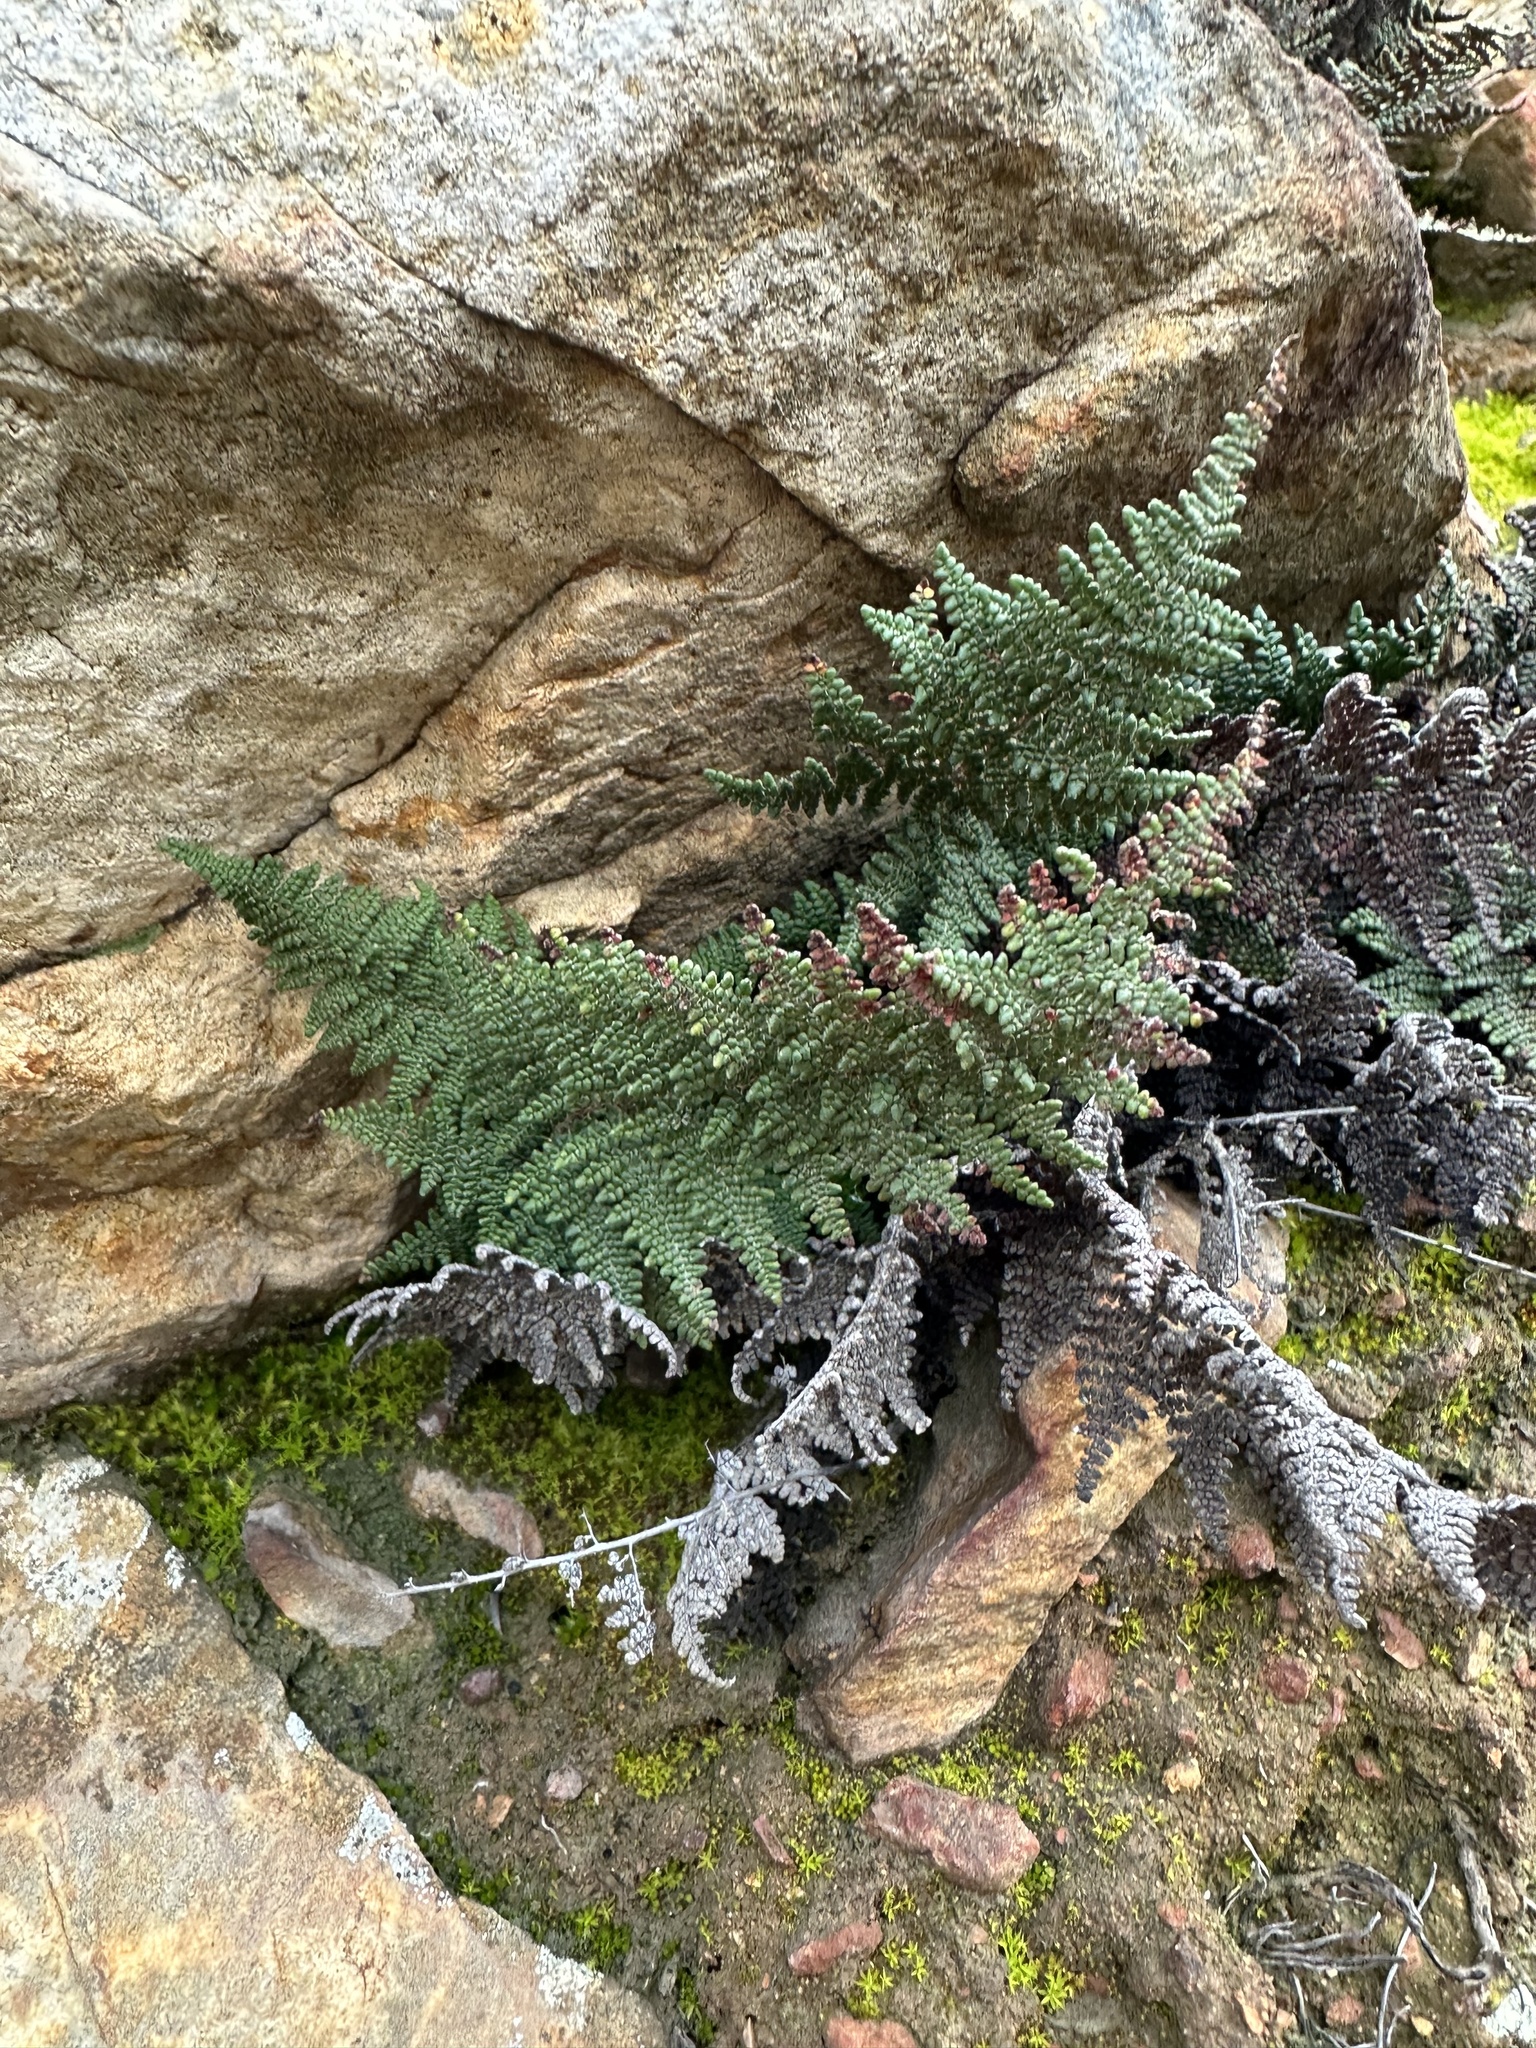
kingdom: Plantae
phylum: Tracheophyta
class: Polypodiopsida
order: Polypodiales
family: Pteridaceae
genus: Myriopteris
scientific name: Myriopteris clevelandii
